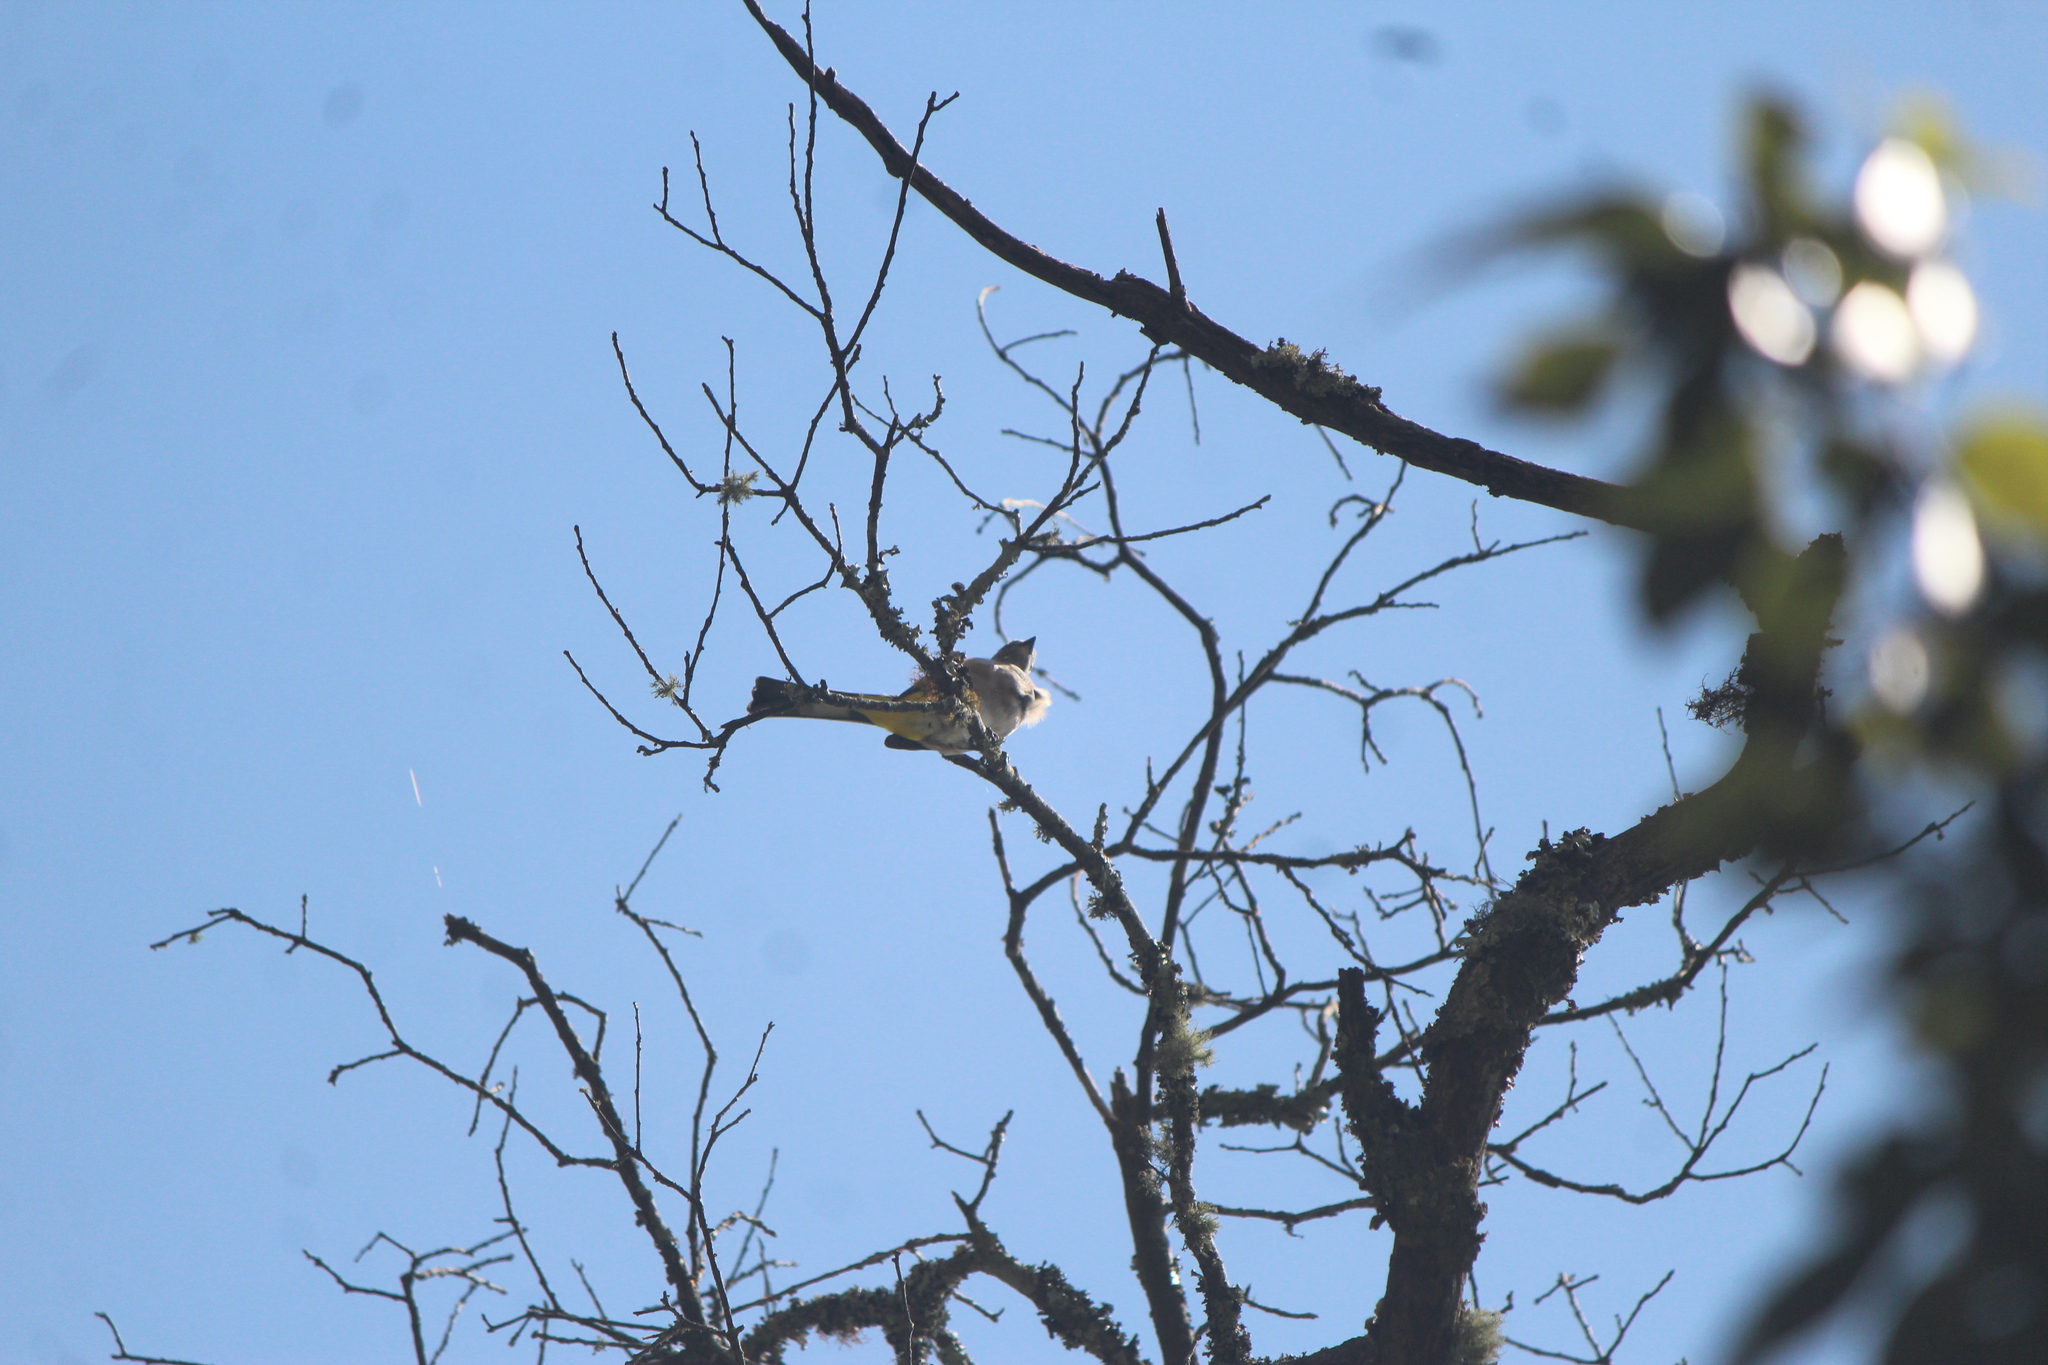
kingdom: Animalia
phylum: Chordata
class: Aves
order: Passeriformes
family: Ptilogonatidae
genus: Ptilogonys
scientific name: Ptilogonys cinereus
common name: Gray silky-flycatcher
